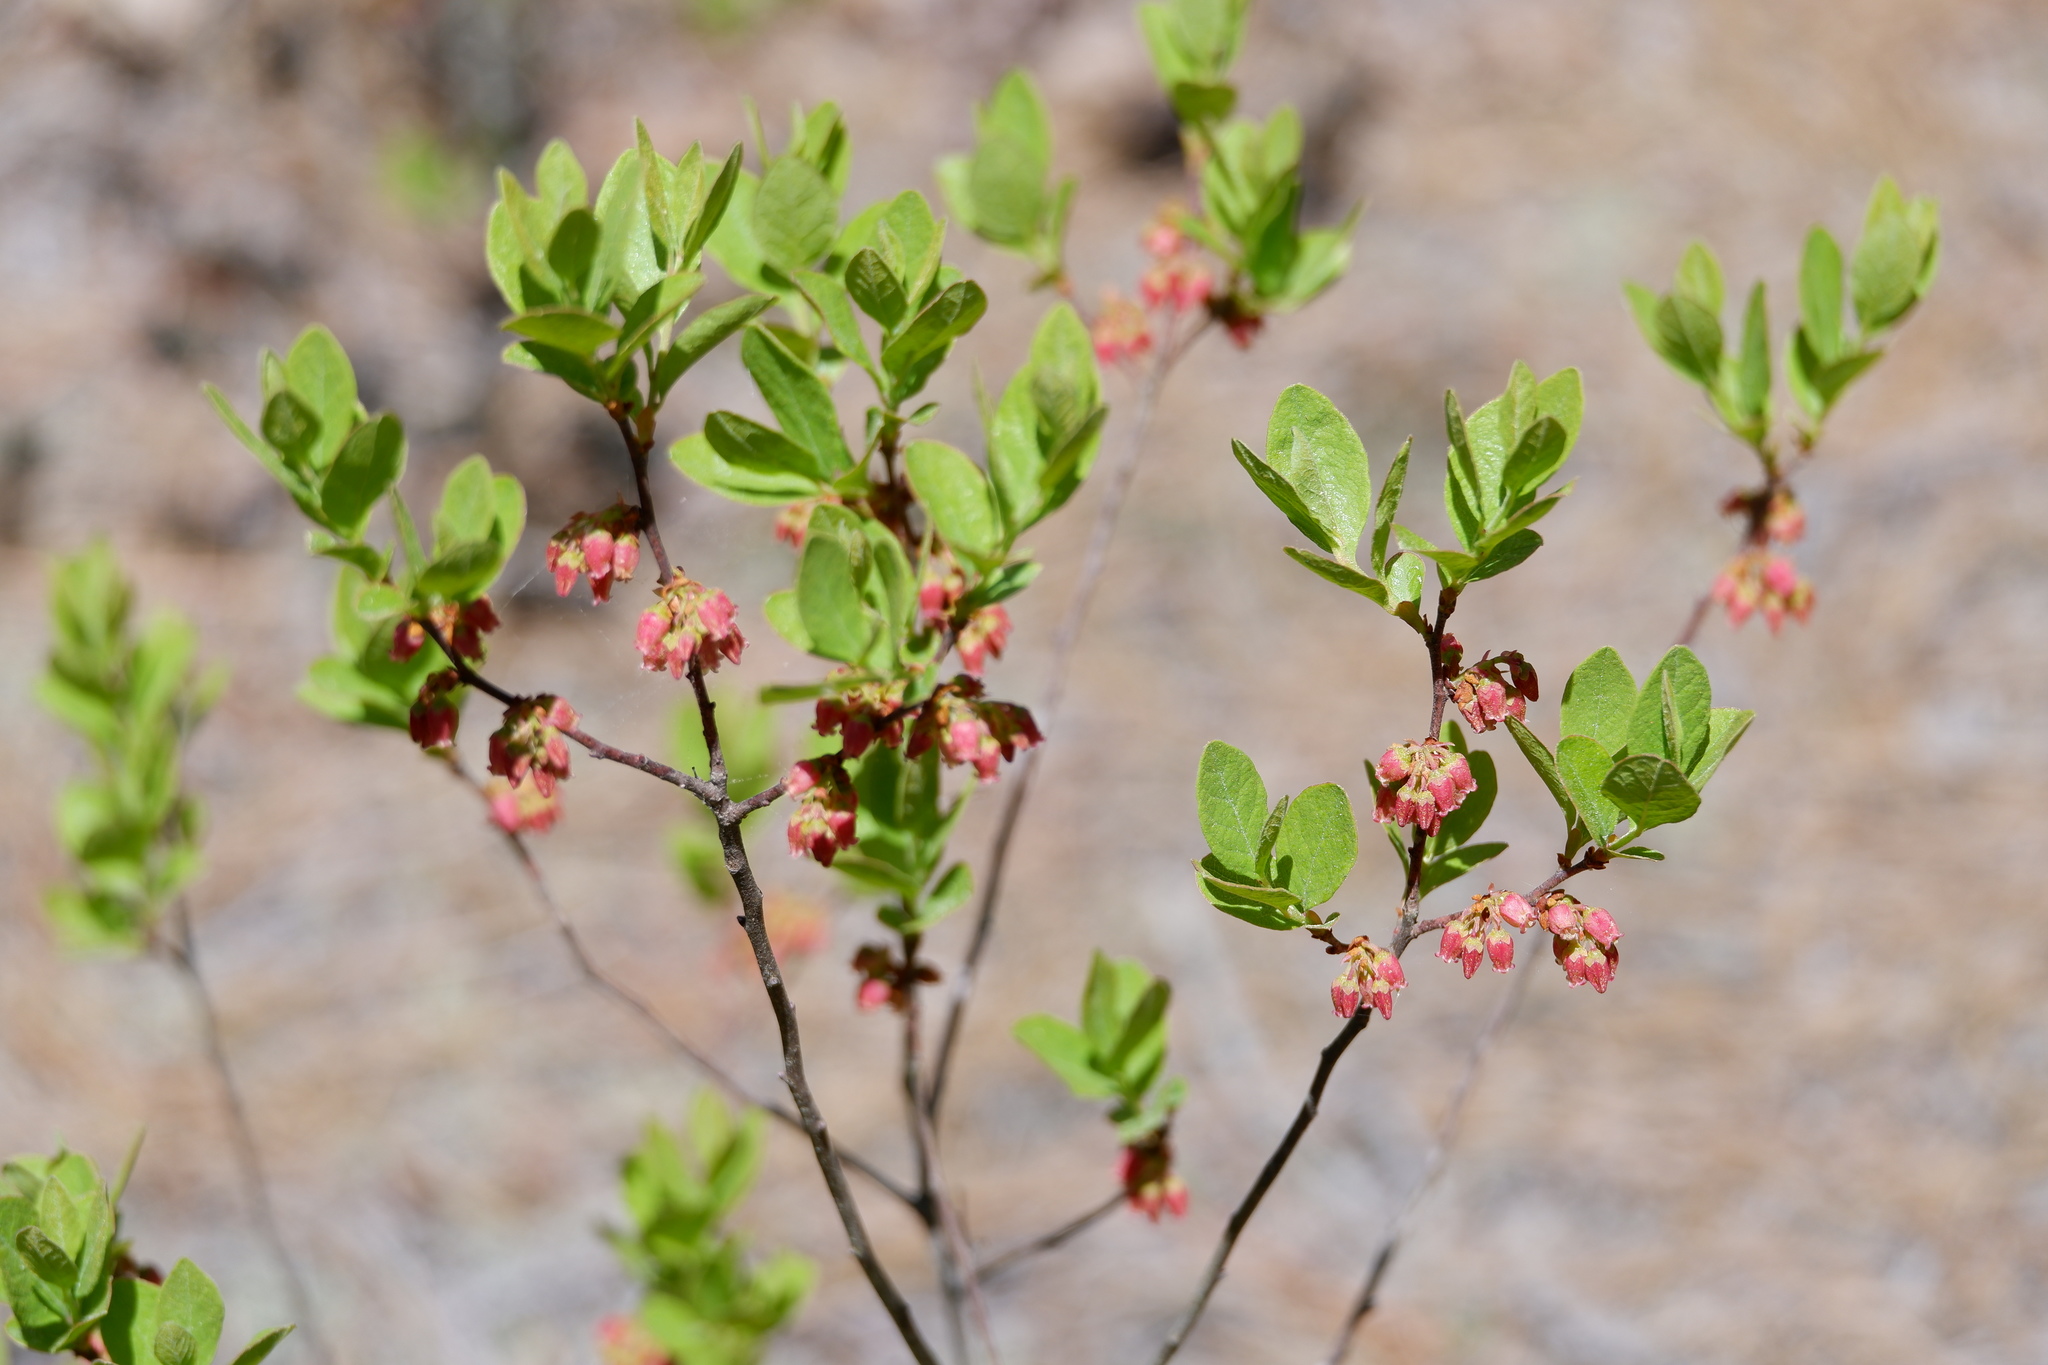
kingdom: Plantae
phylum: Tracheophyta
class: Magnoliopsida
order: Ericales
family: Ericaceae
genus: Gaylussacia
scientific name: Gaylussacia baccata
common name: Black huckleberry
